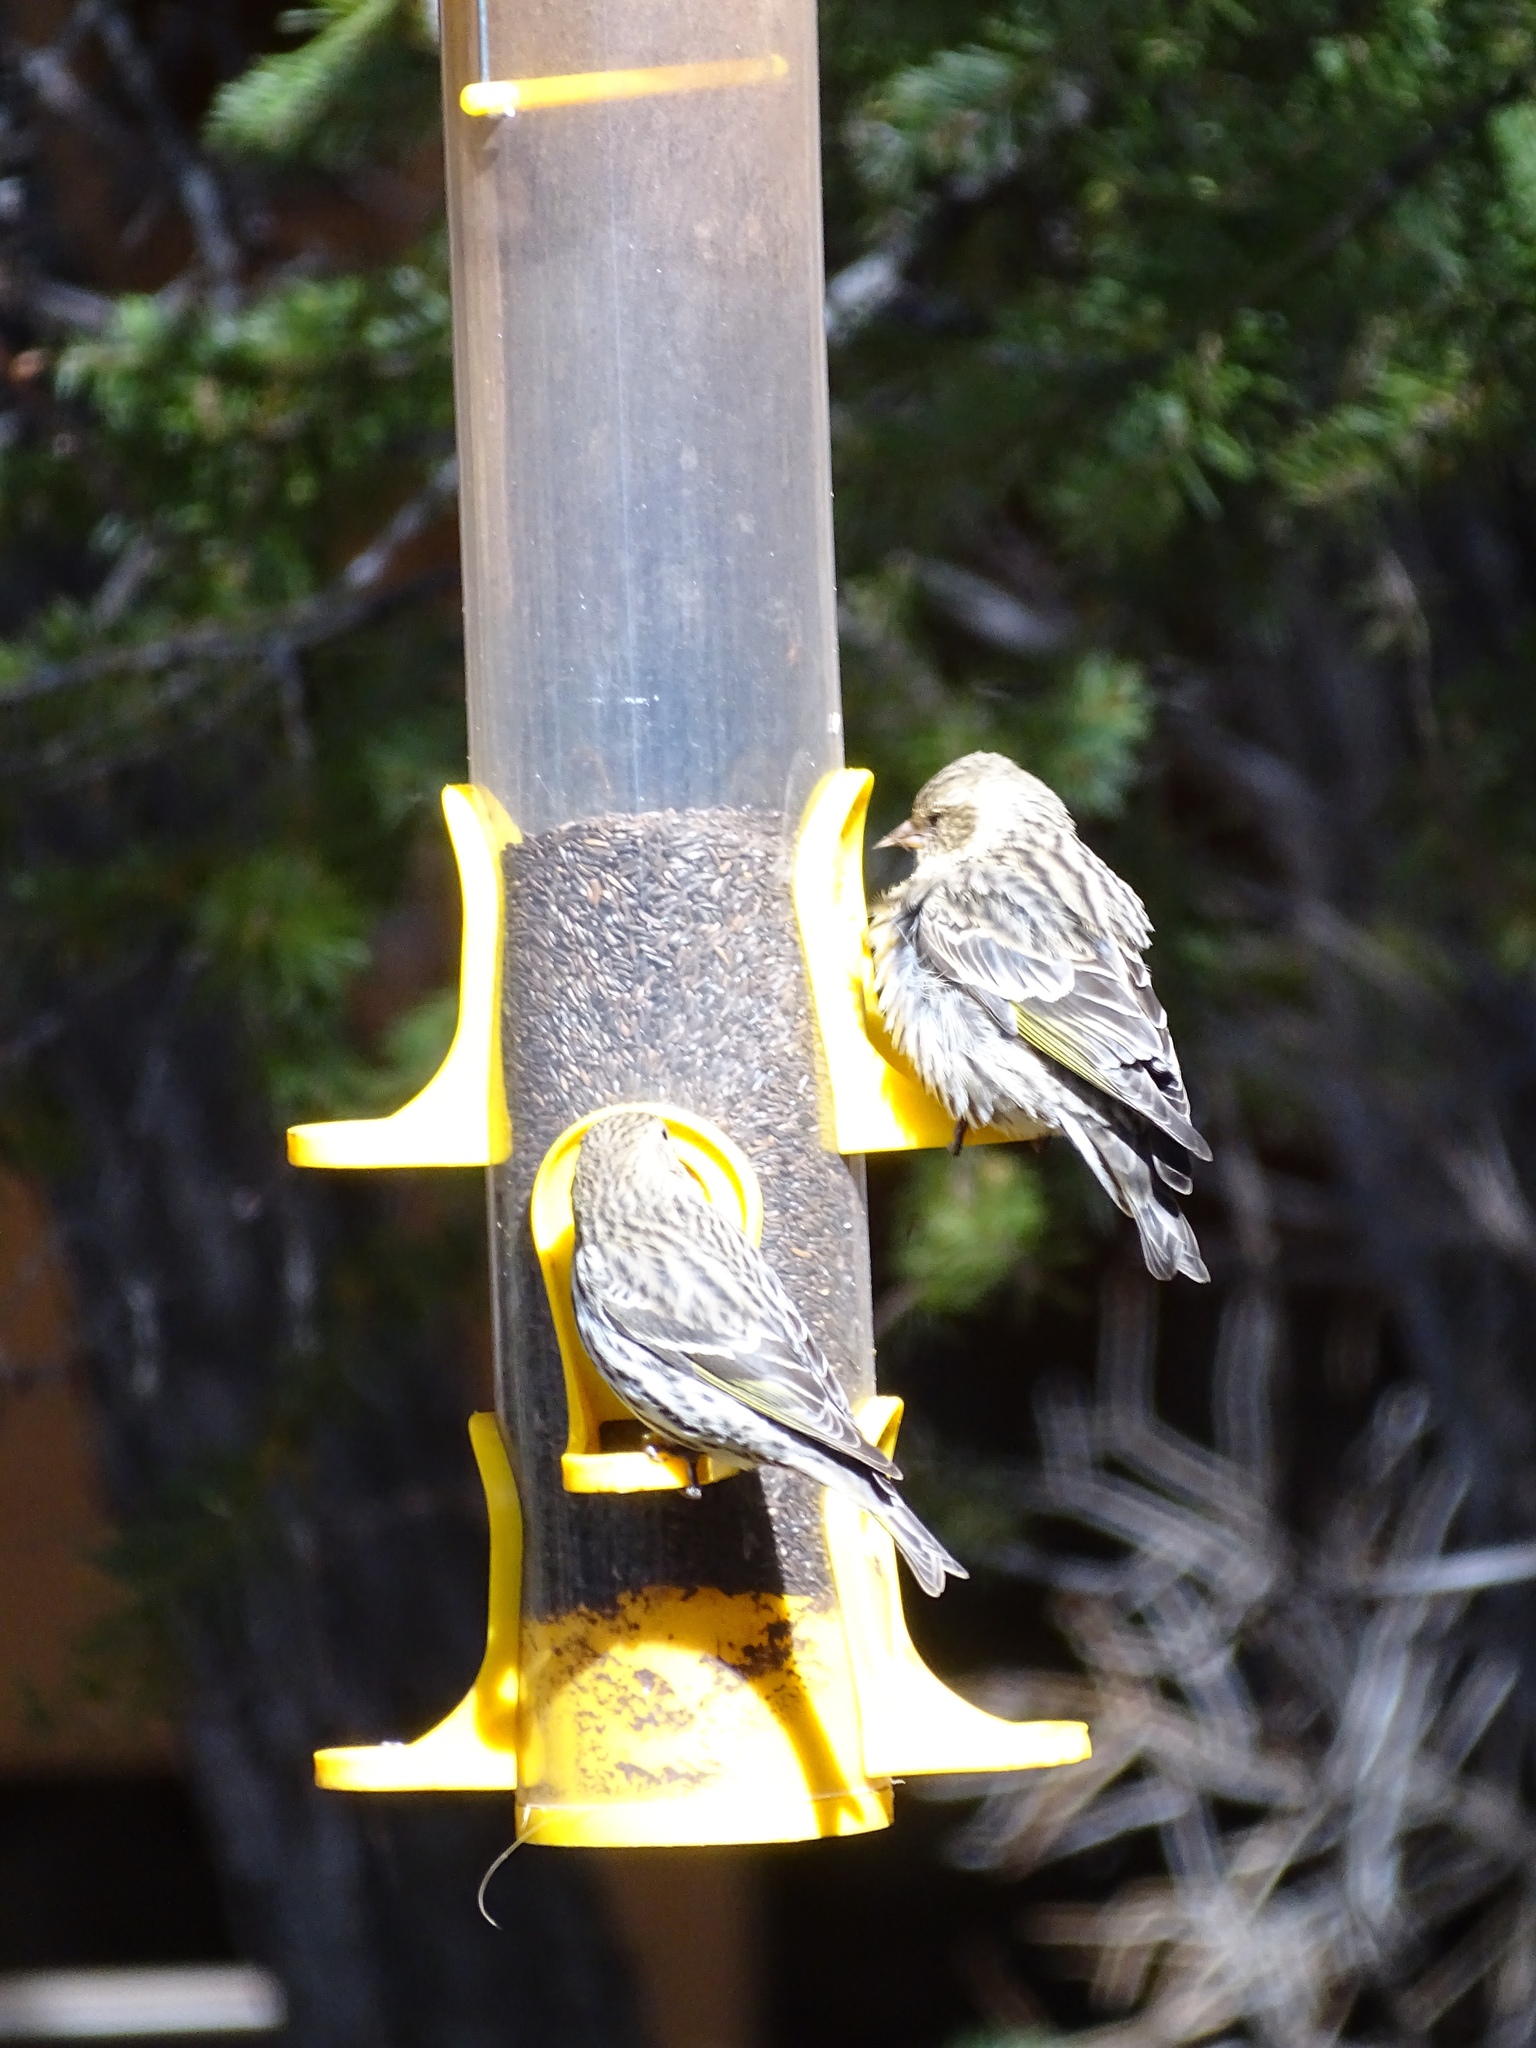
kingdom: Animalia
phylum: Chordata
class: Aves
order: Passeriformes
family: Fringillidae
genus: Spinus
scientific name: Spinus pinus
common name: Pine siskin
